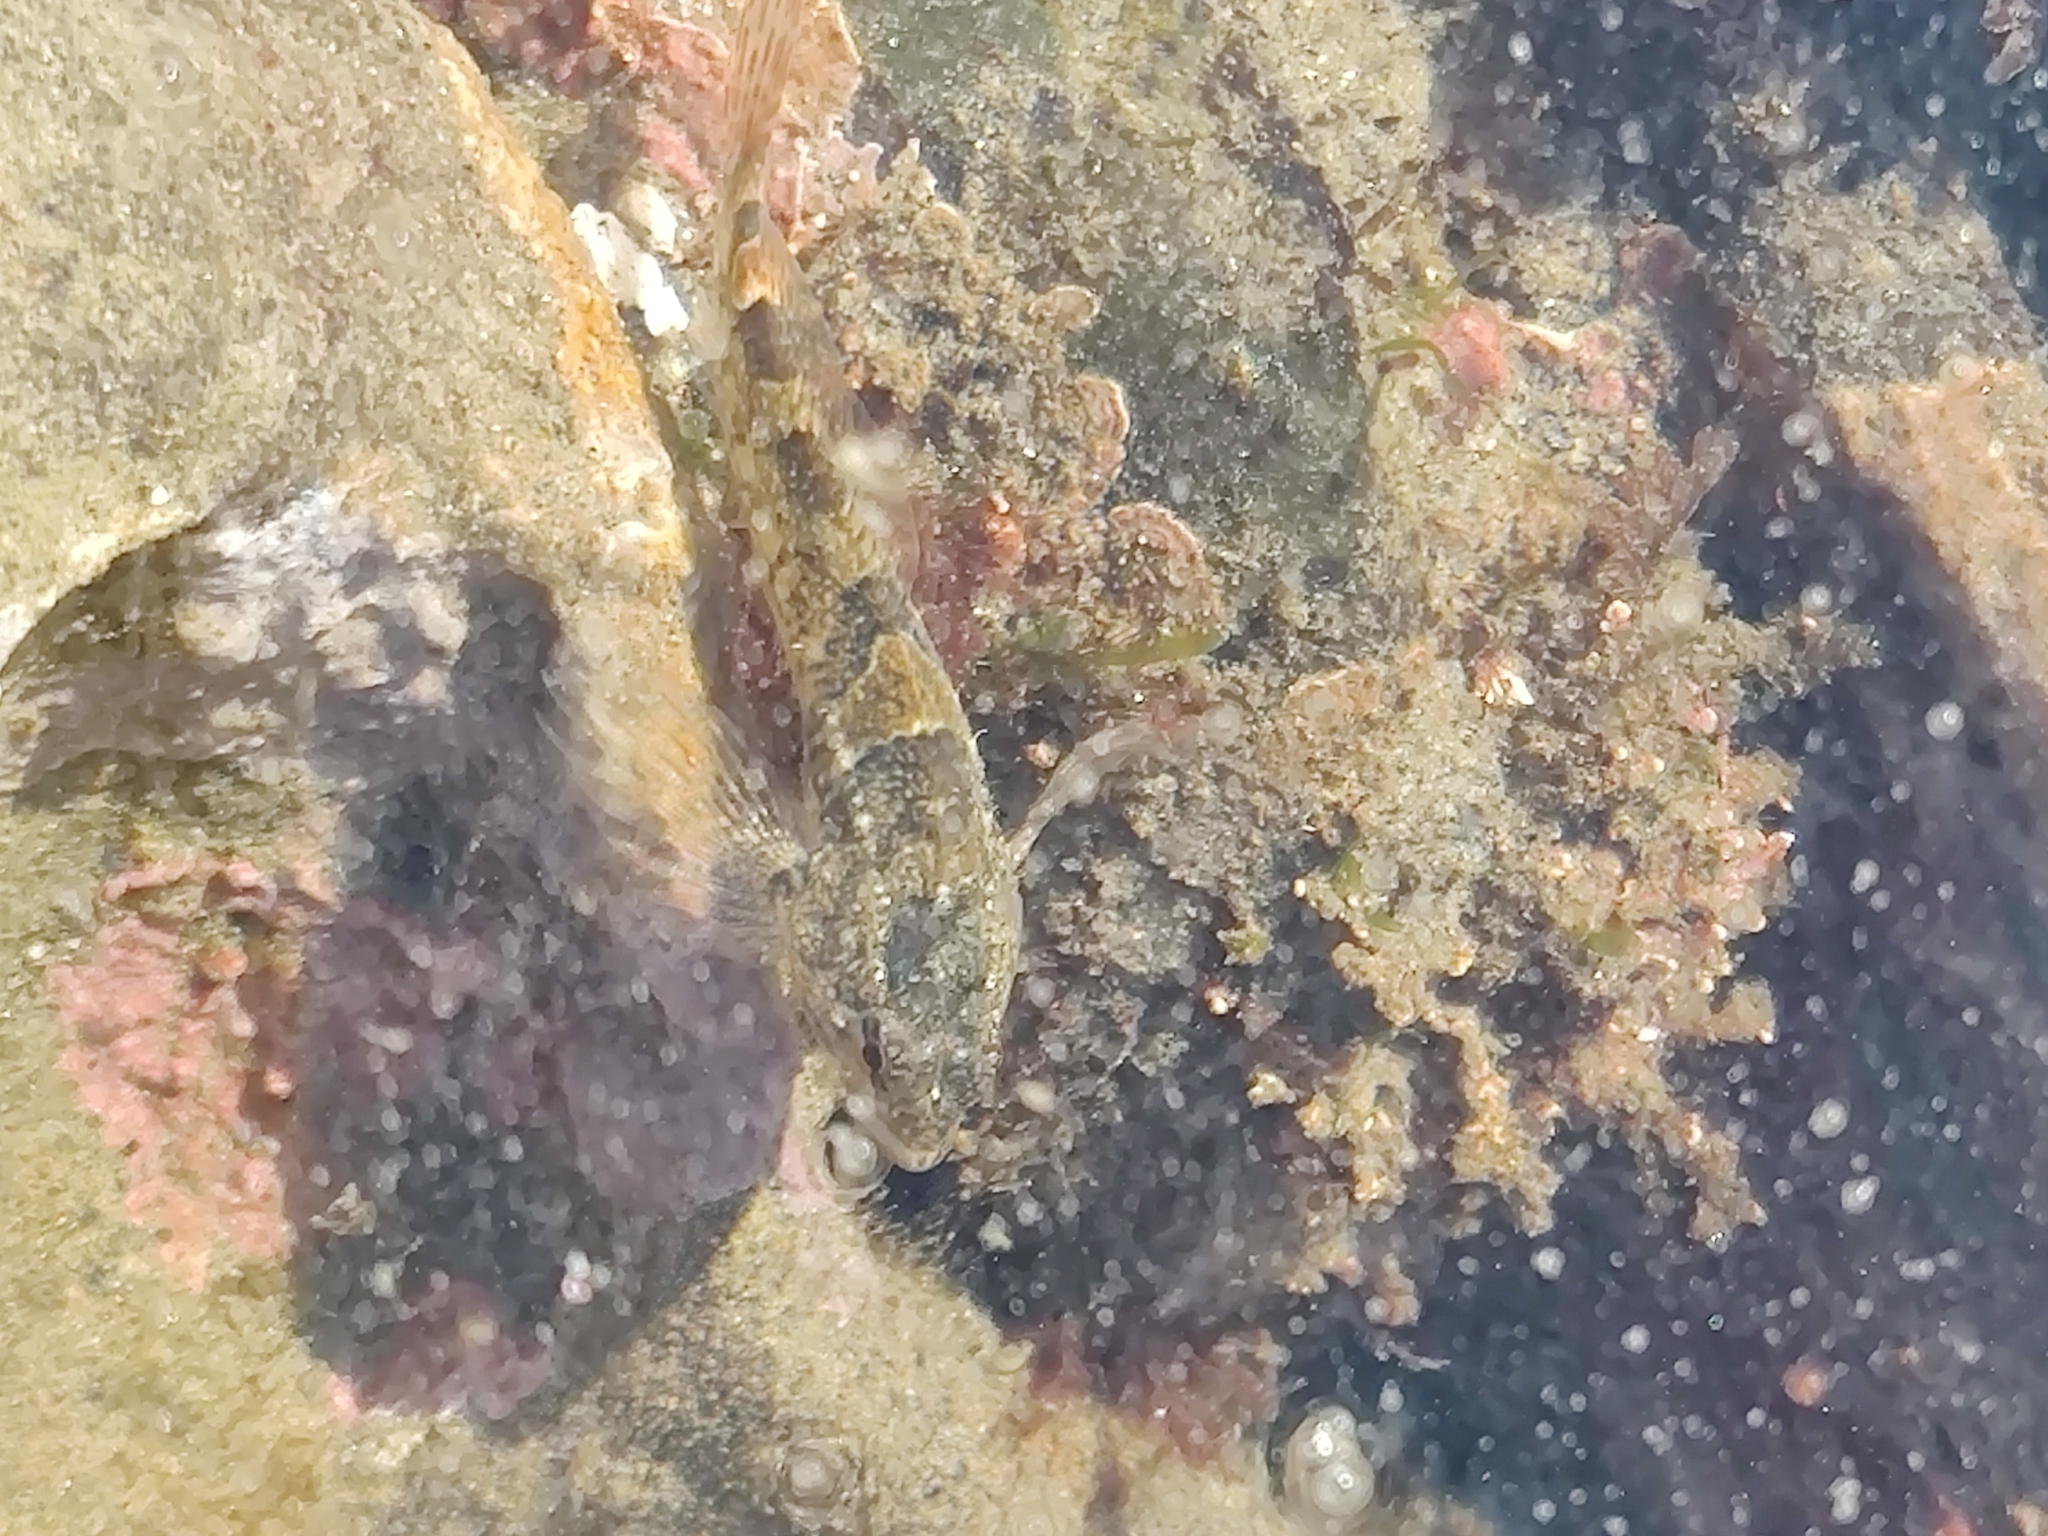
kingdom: Animalia
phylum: Chordata
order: Scorpaeniformes
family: Cottidae
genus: Oligocottus
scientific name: Oligocottus maculosus
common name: Tidepool sculpin
